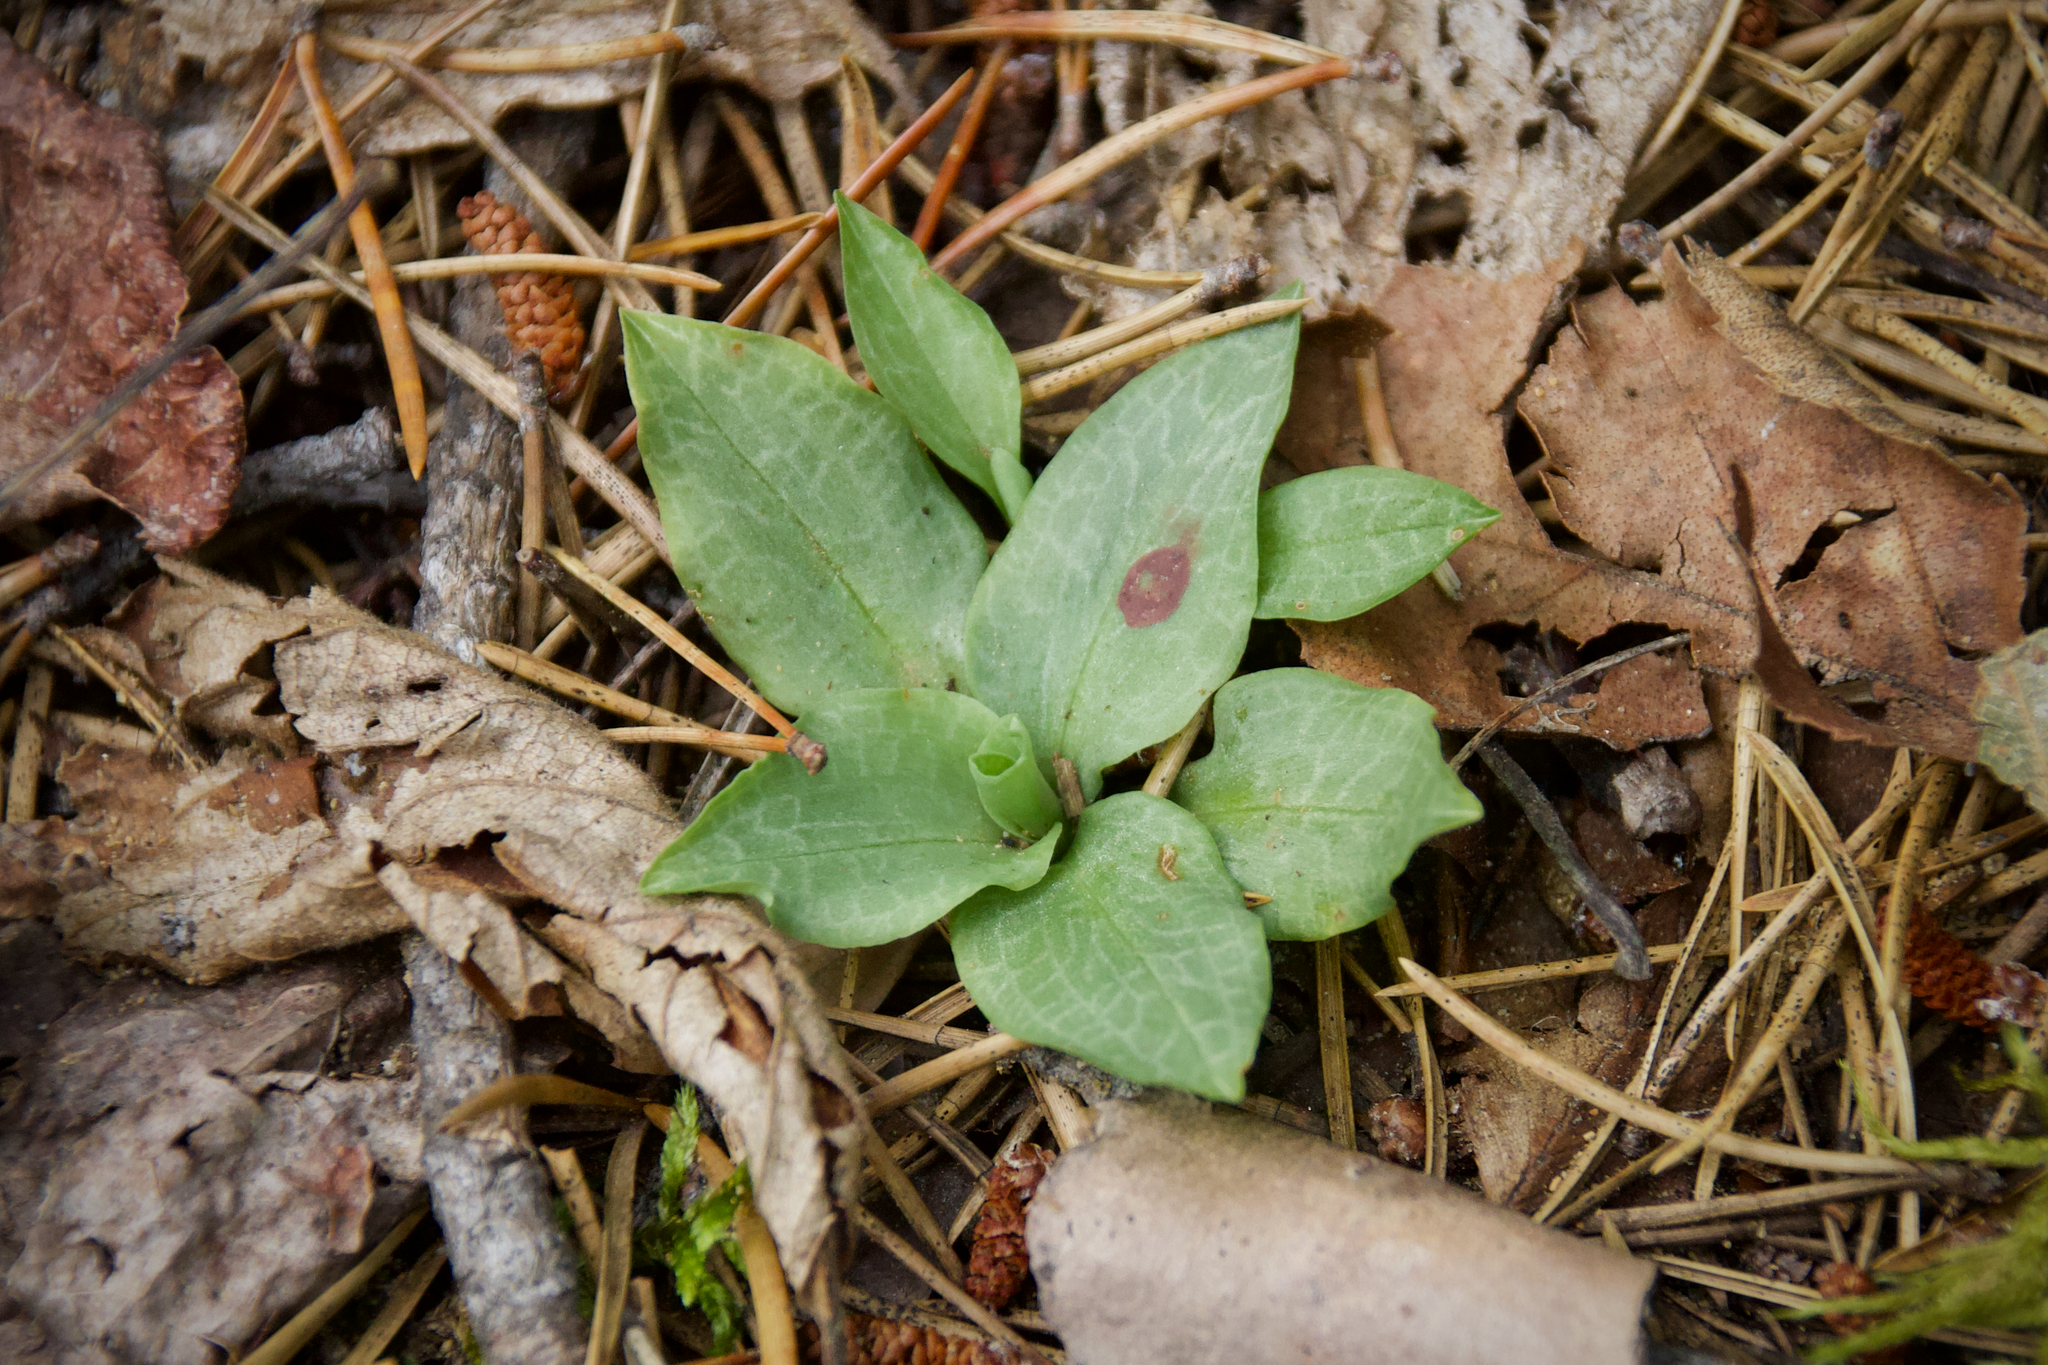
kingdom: Plantae
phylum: Tracheophyta
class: Liliopsida
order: Asparagales
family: Orchidaceae
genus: Goodyera
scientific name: Goodyera tesselata
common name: Checkered rattlesnake-plantain
